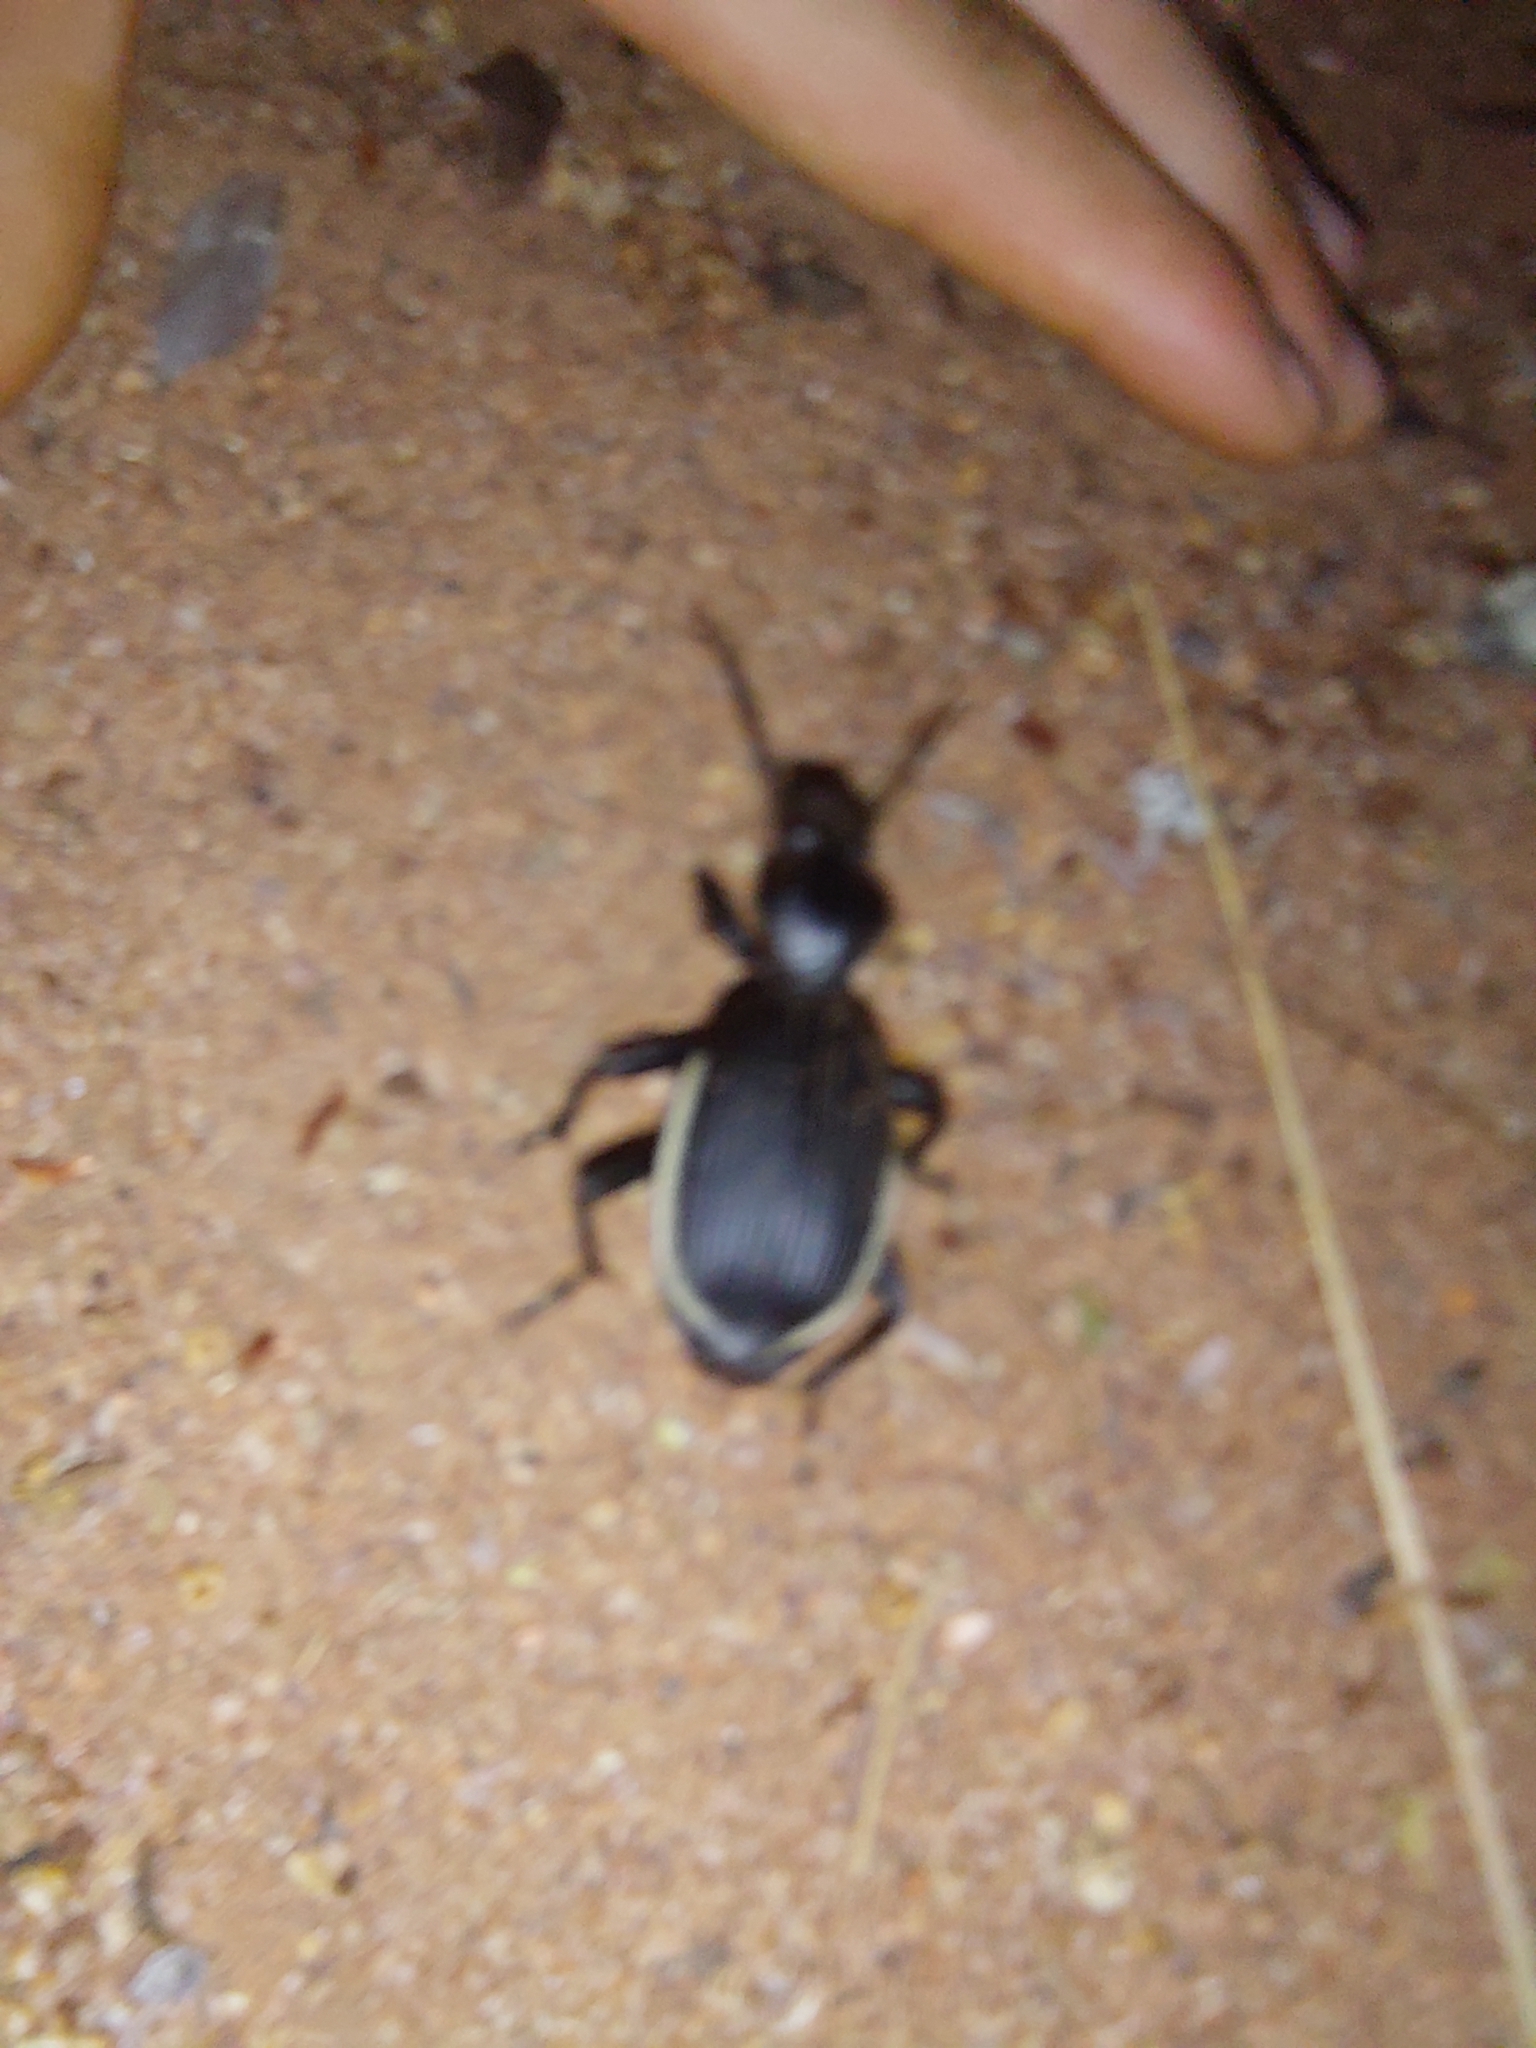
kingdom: Animalia
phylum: Arthropoda
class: Insecta
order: Coleoptera
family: Carabidae
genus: Anthia
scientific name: Anthia cinctipennis
